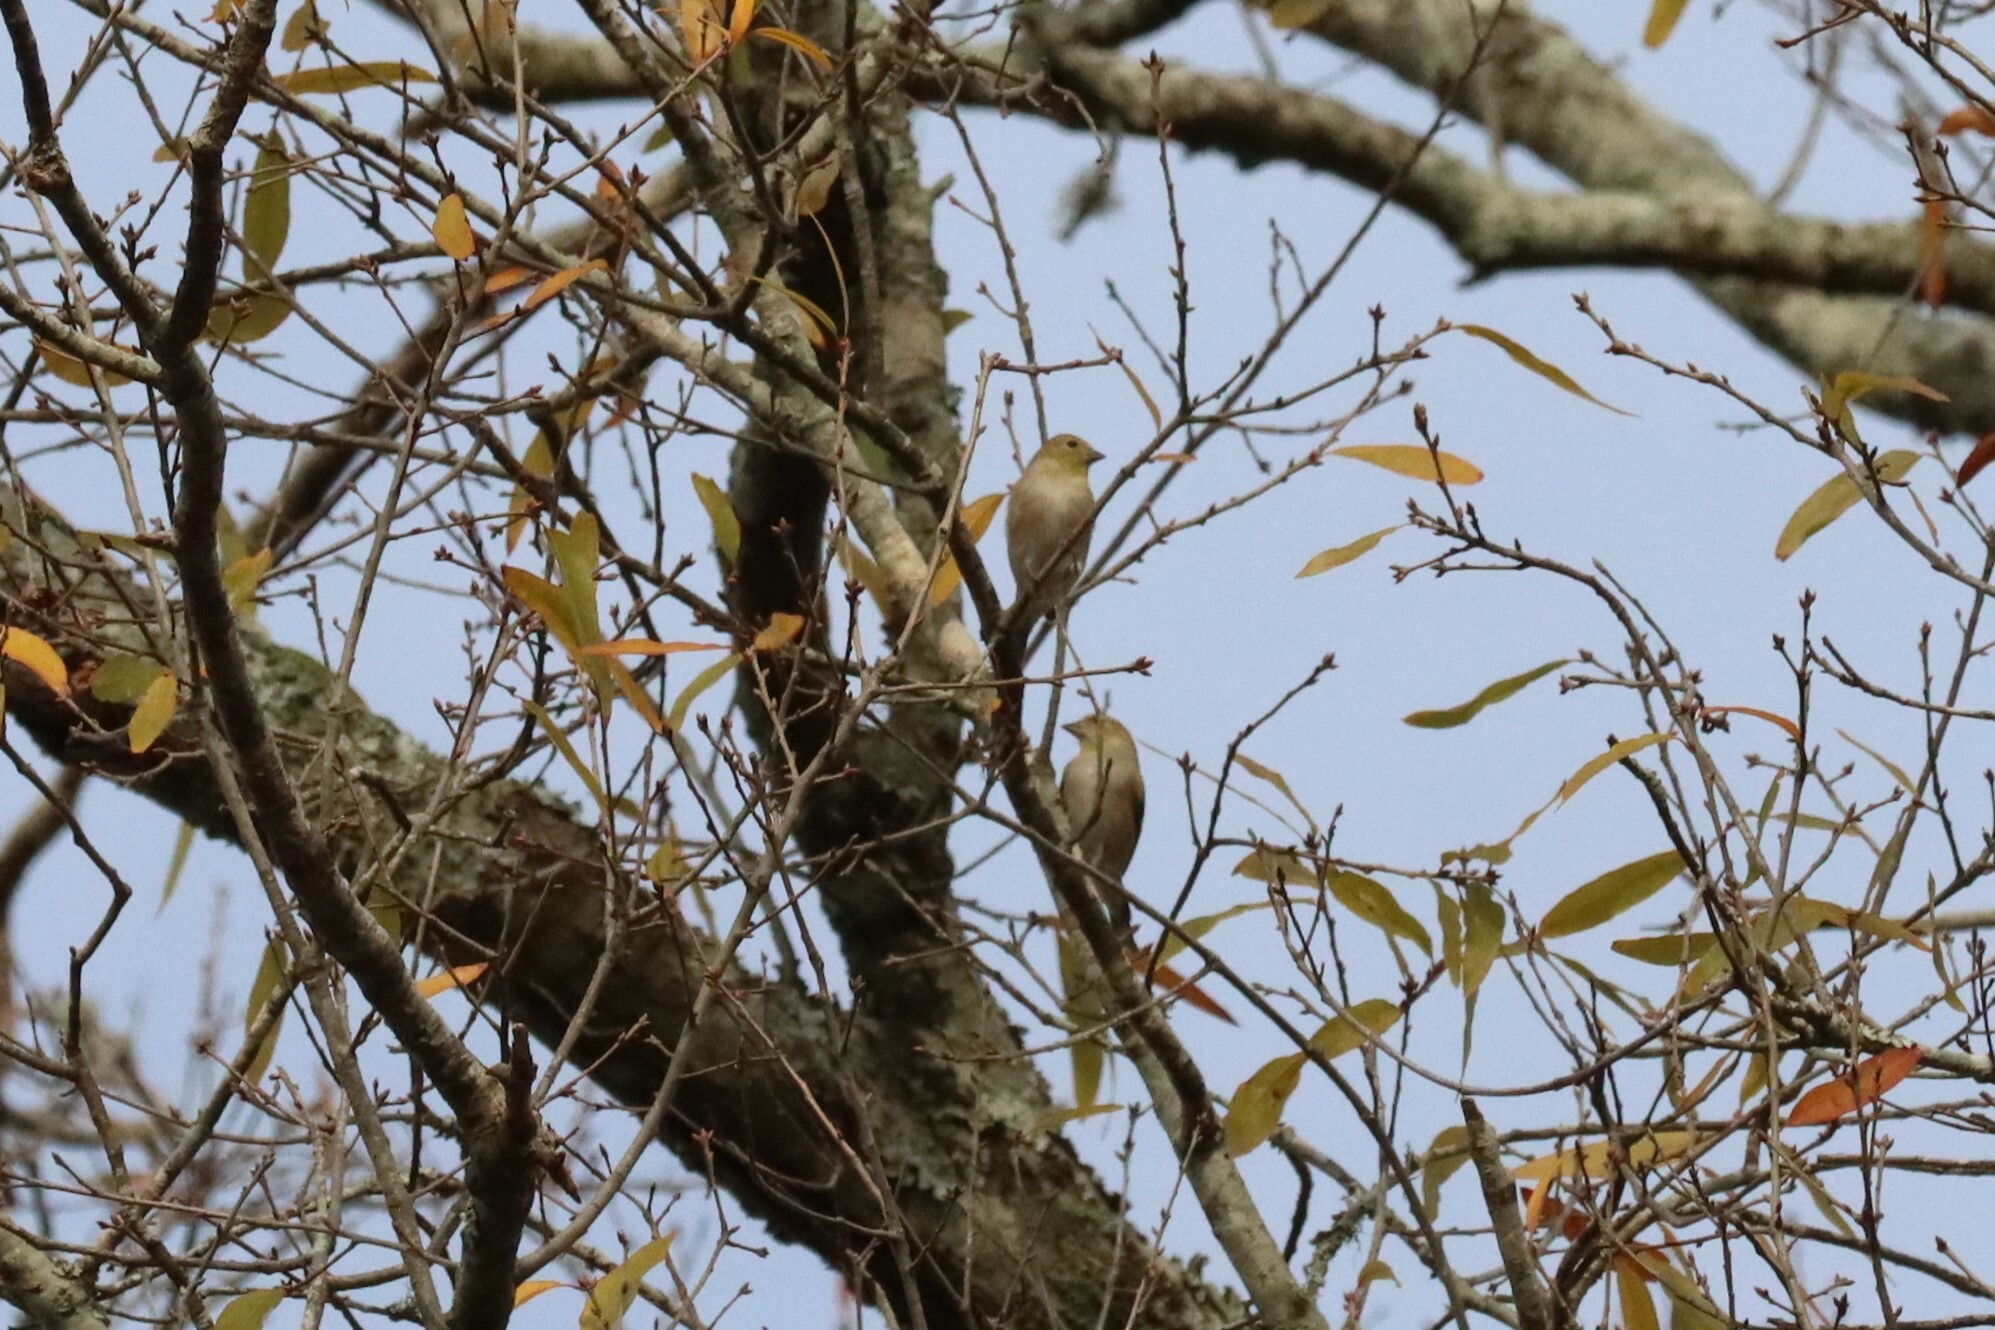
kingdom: Animalia
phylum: Chordata
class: Aves
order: Passeriformes
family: Fringillidae
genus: Spinus
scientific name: Spinus tristis
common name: American goldfinch
